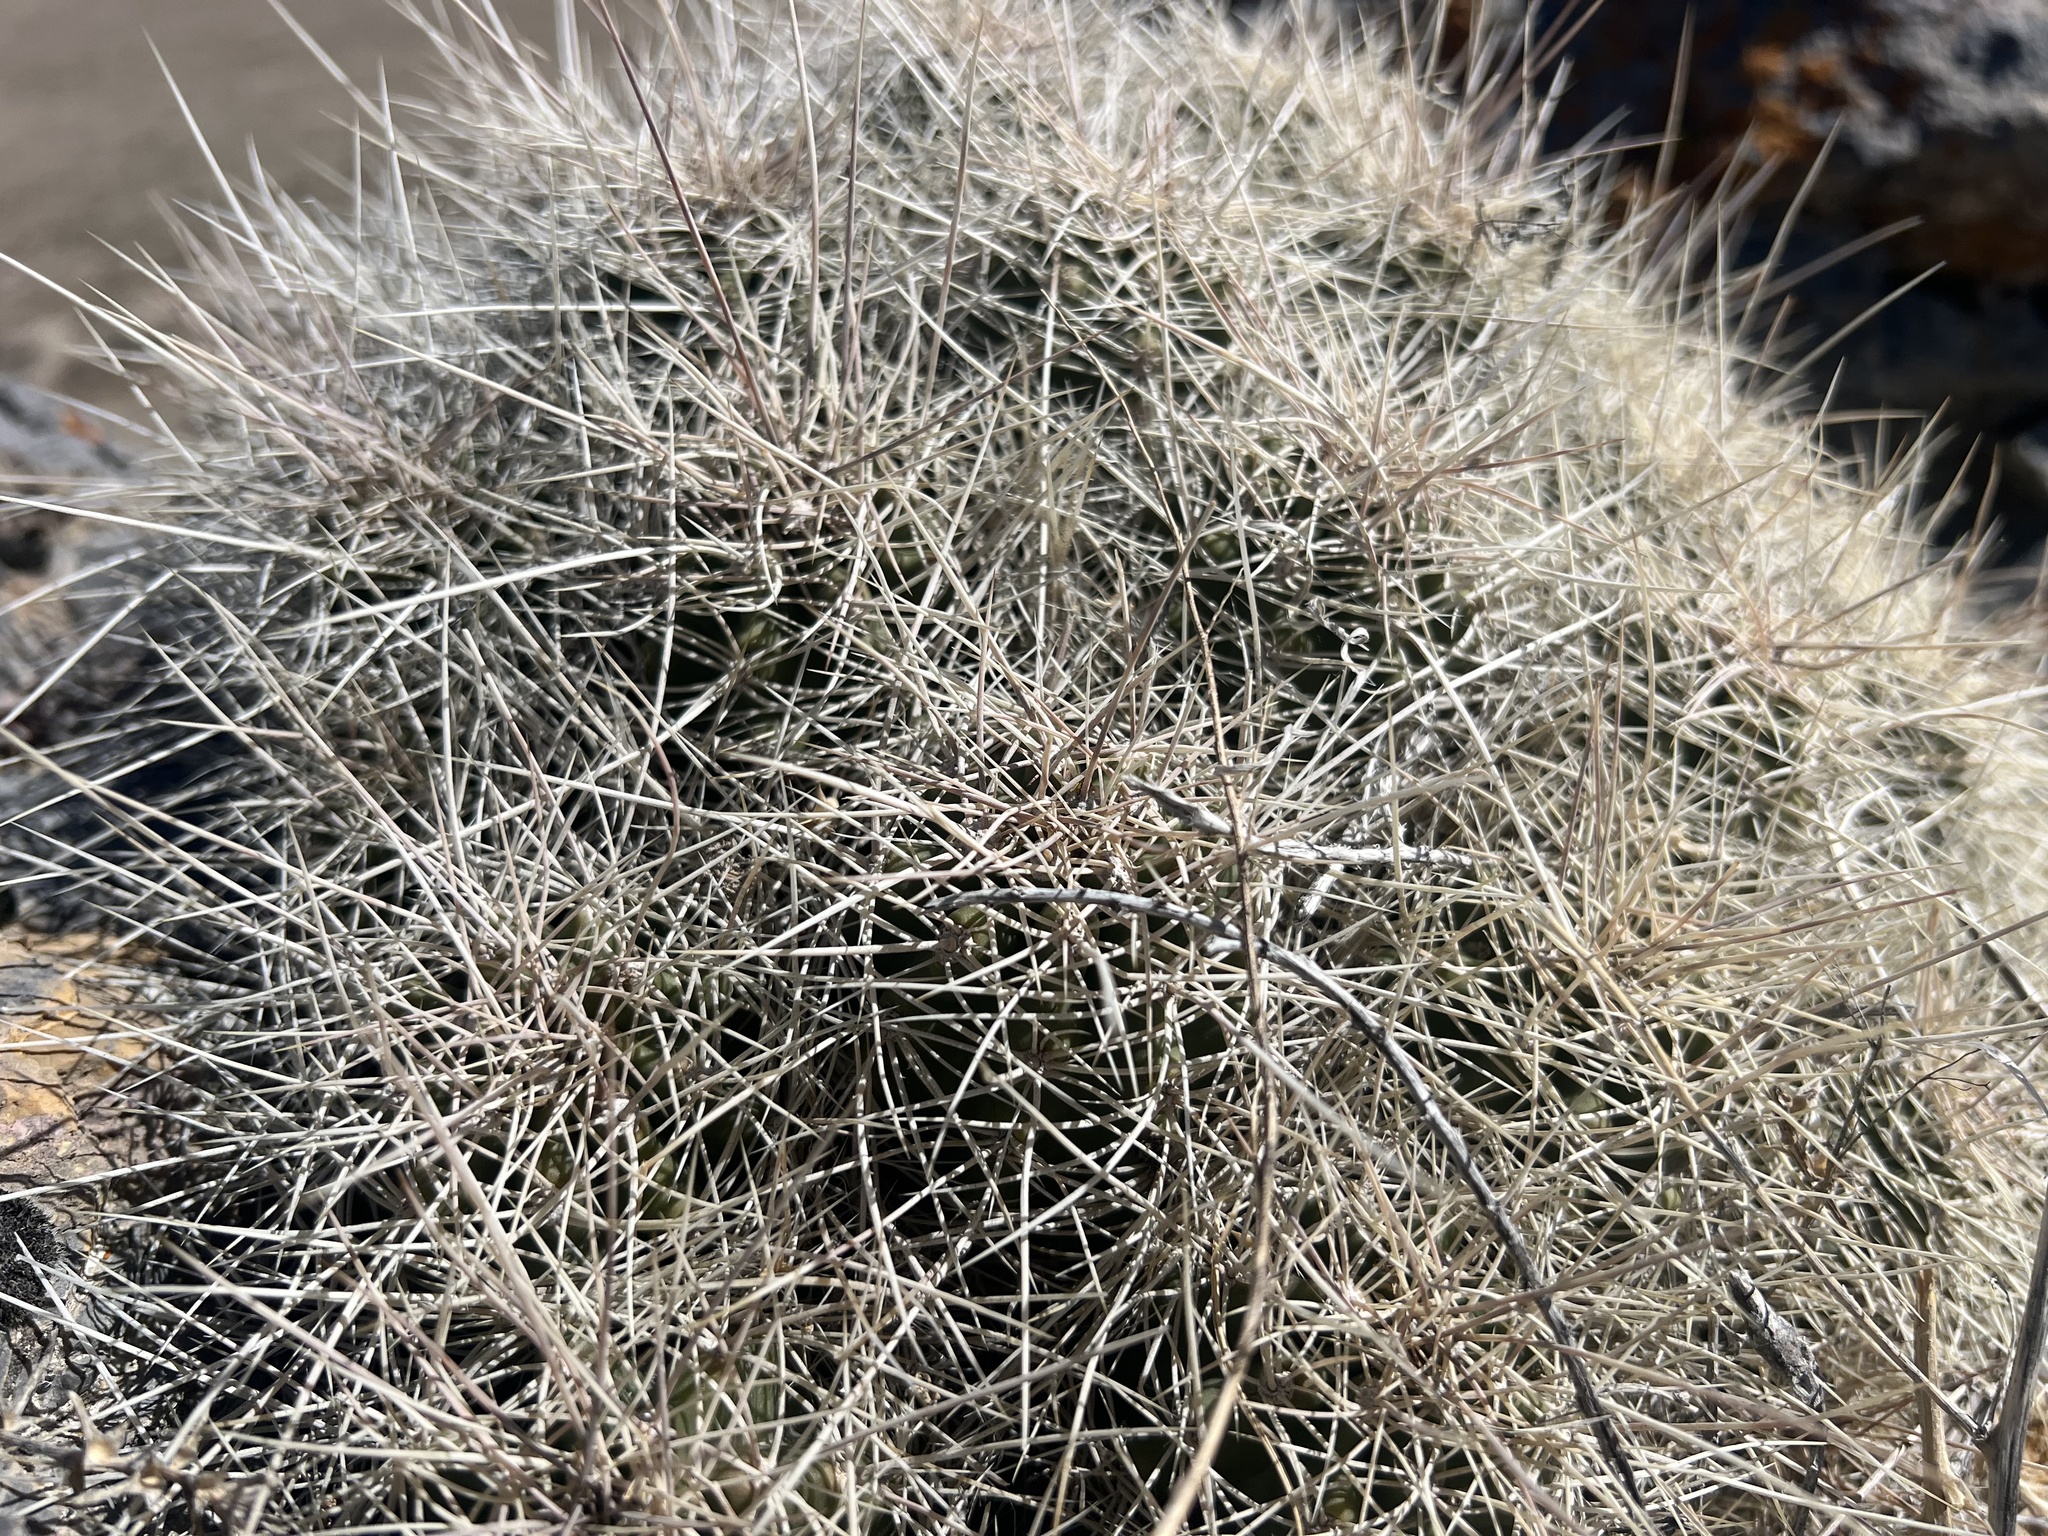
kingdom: Plantae
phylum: Tracheophyta
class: Magnoliopsida
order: Caryophyllales
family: Cactaceae
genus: Echinocereus
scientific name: Echinocereus triglochidiatus
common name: Claretcup hedgehog
